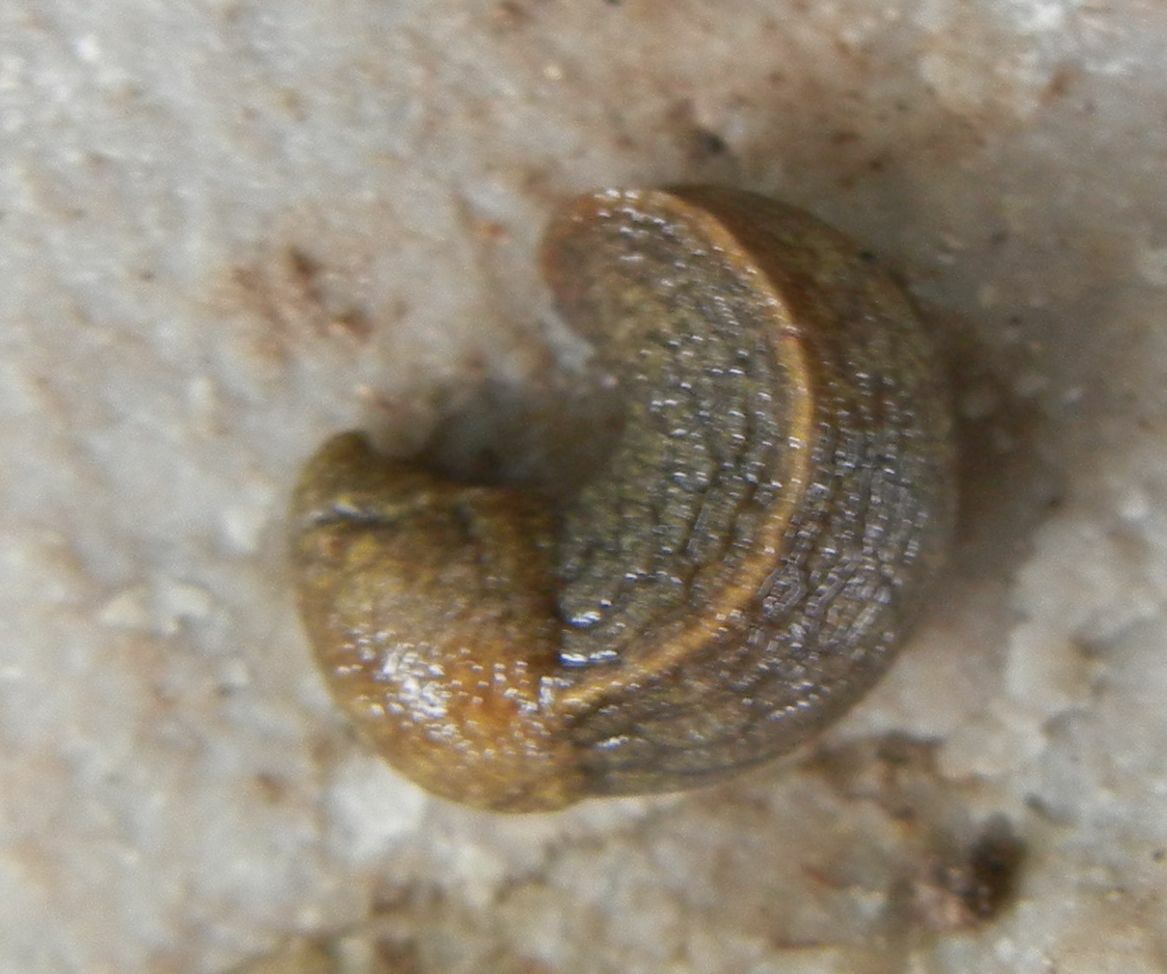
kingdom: Animalia
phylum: Mollusca
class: Gastropoda
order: Stylommatophora
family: Milacidae
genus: Tandonia
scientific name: Tandonia budapestensis
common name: Budapest slug
